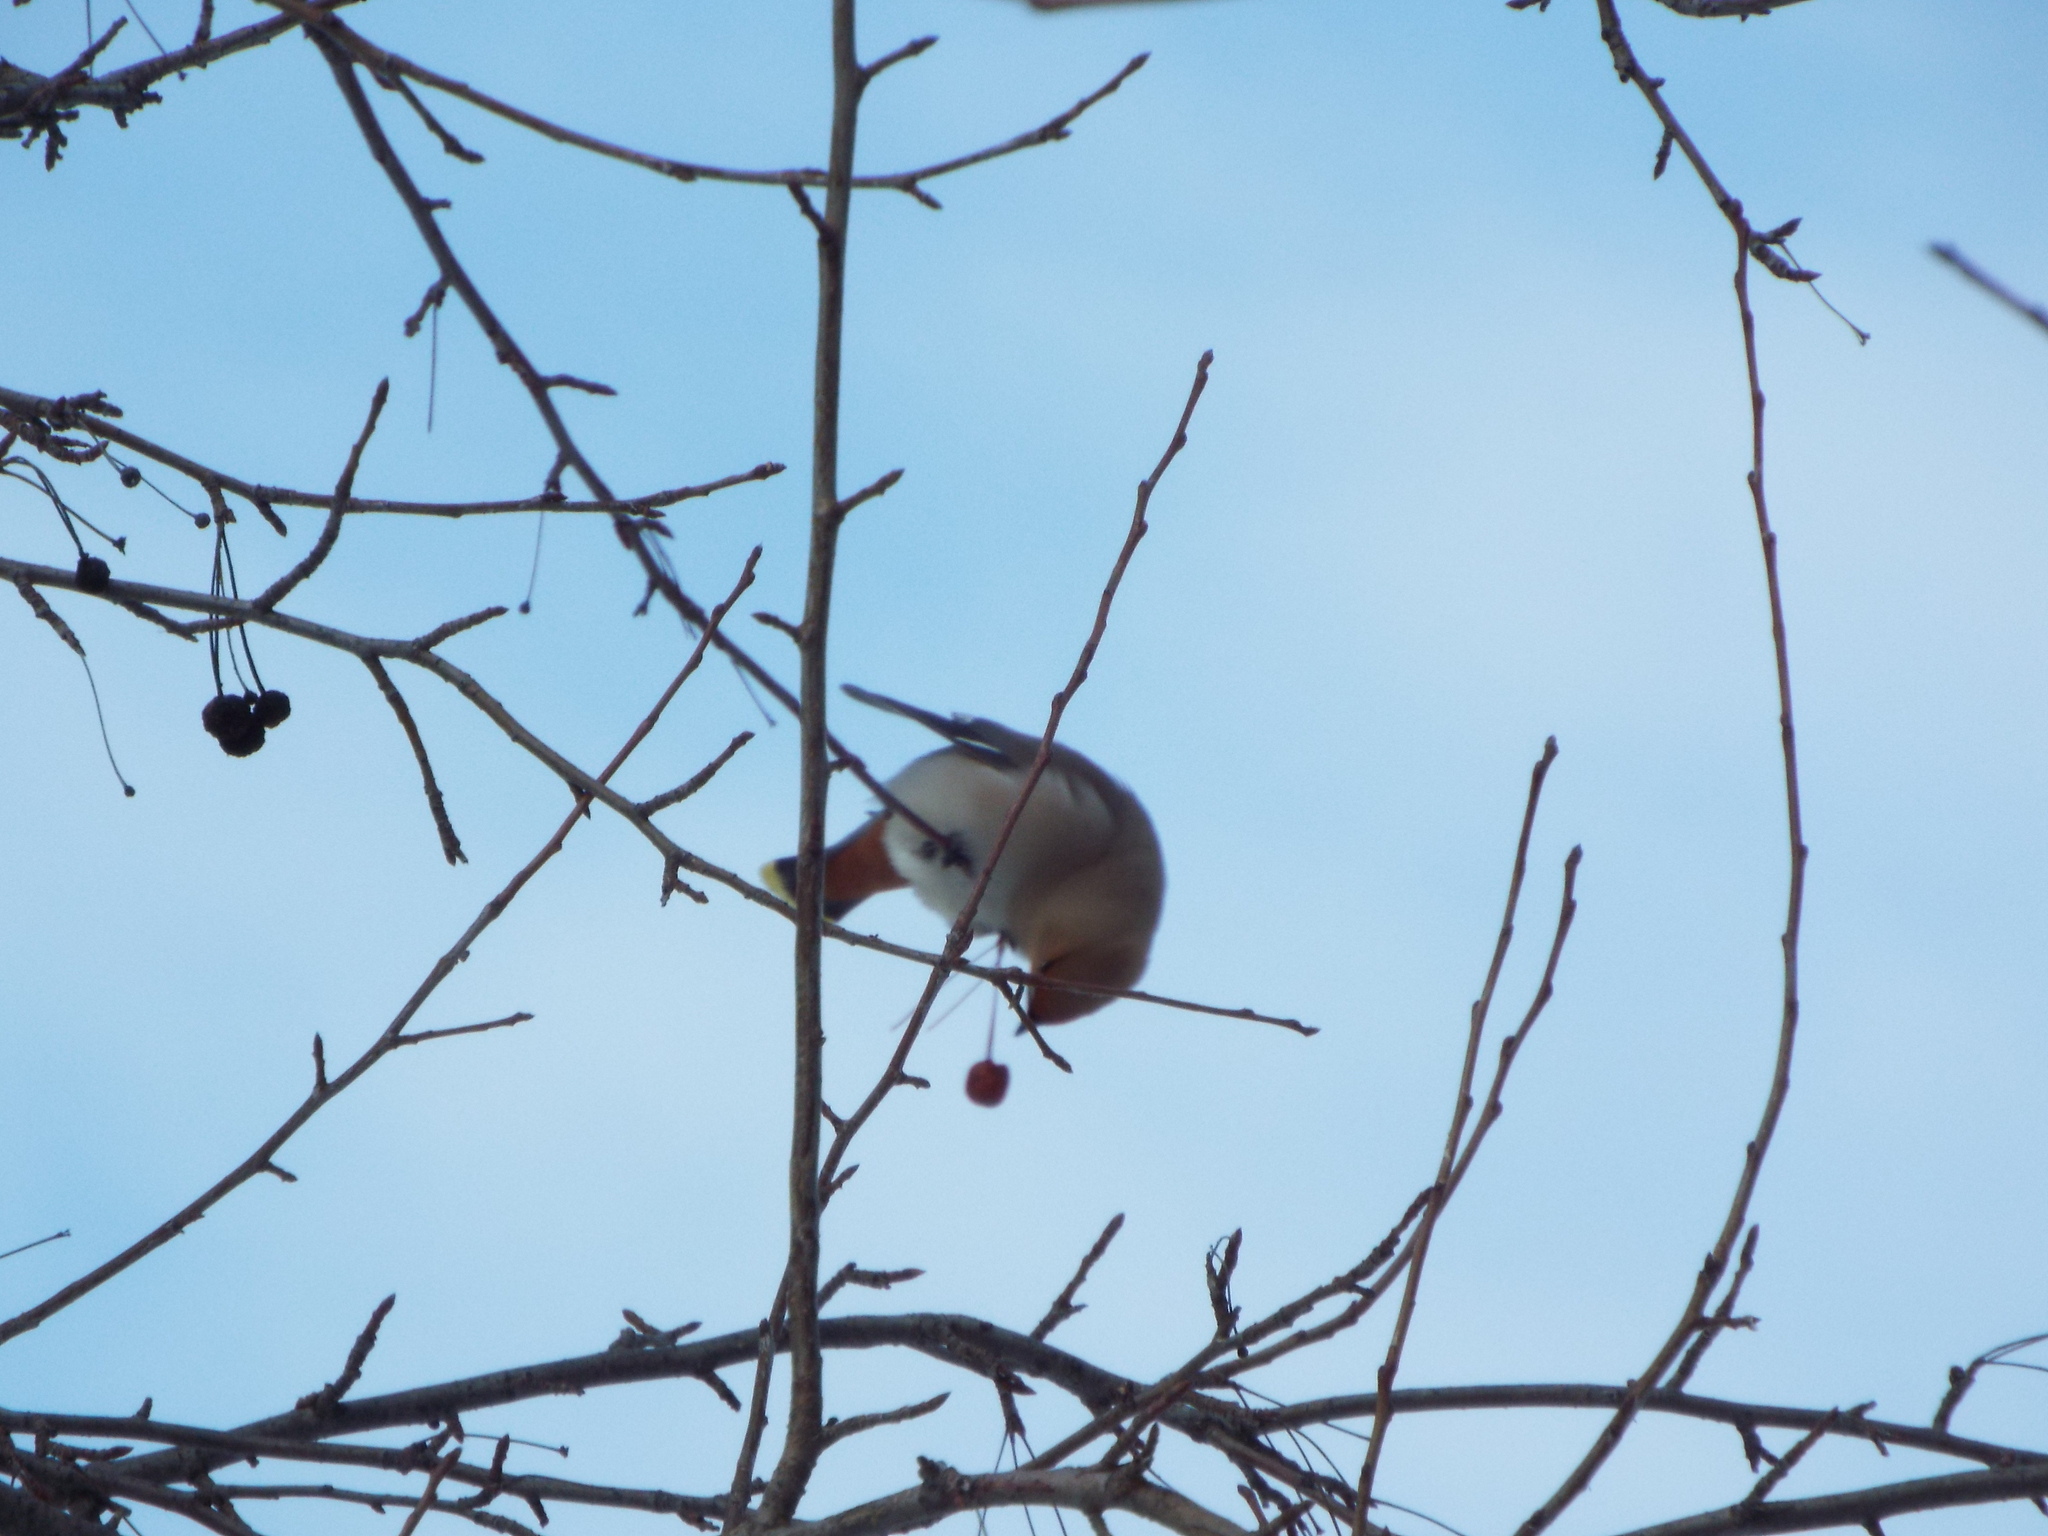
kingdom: Animalia
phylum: Chordata
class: Aves
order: Passeriformes
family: Bombycillidae
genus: Bombycilla
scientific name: Bombycilla garrulus
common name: Bohemian waxwing
